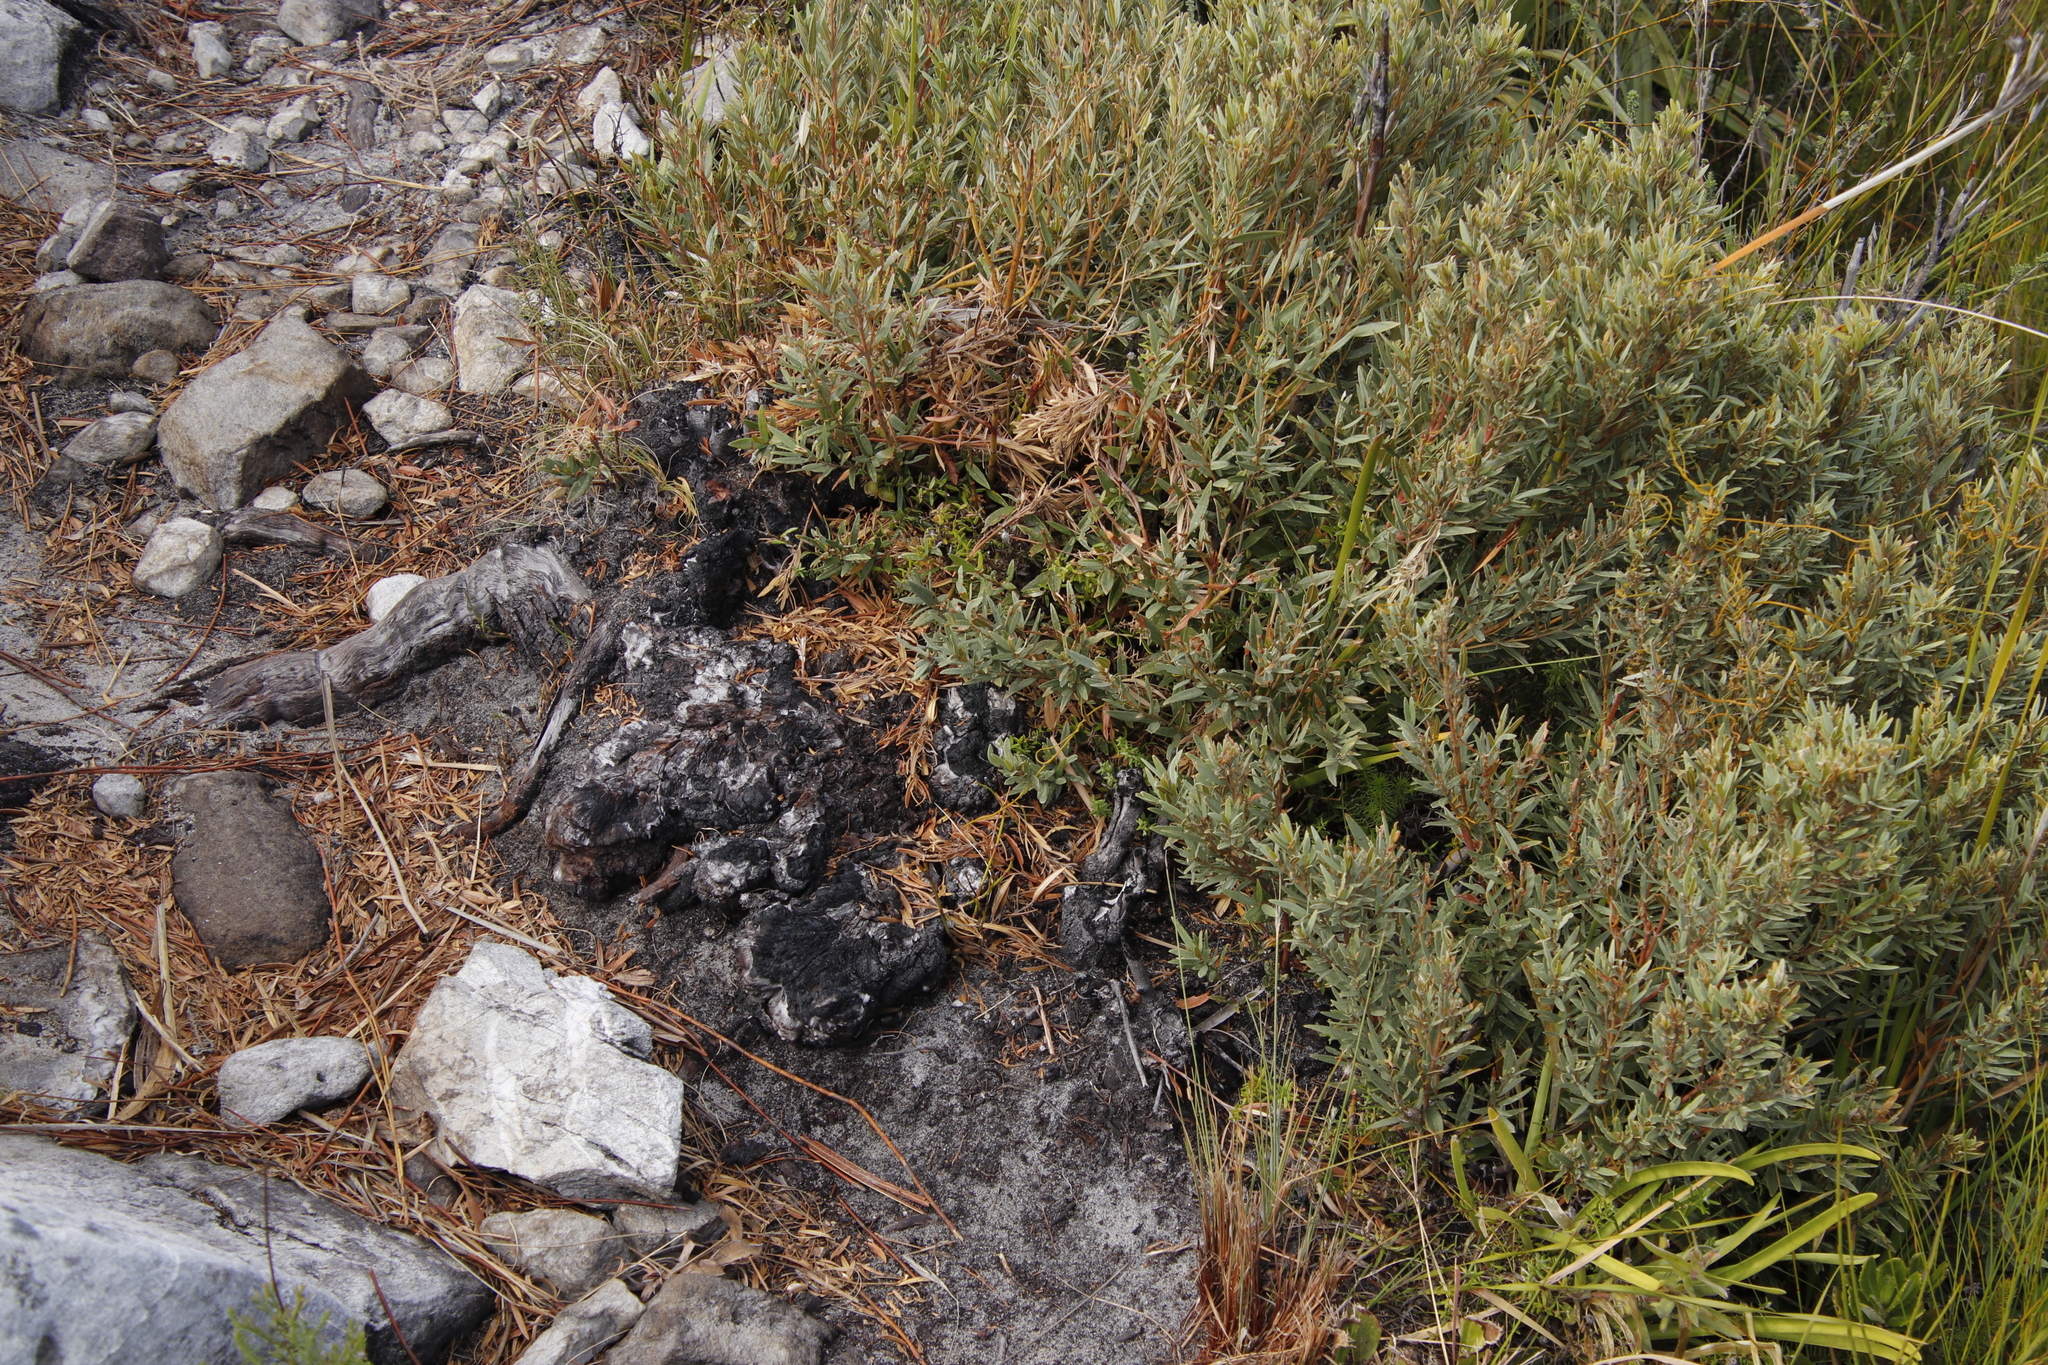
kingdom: Plantae
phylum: Tracheophyta
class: Magnoliopsida
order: Cornales
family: Grubbiaceae
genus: Grubbia
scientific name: Grubbia tomentosa
